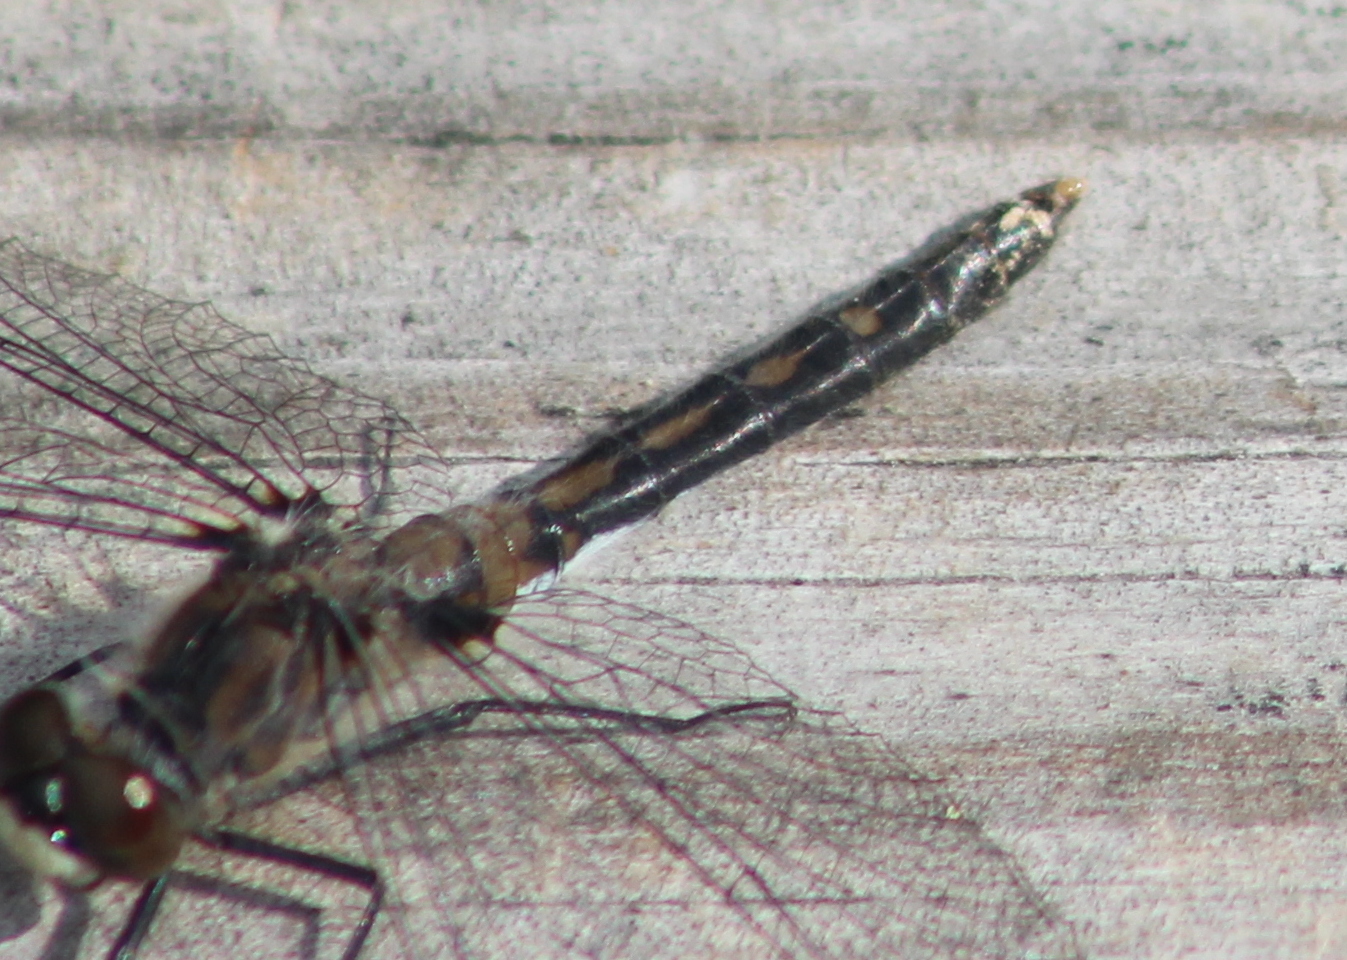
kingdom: Animalia
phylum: Arthropoda
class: Insecta
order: Odonata
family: Libellulidae
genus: Leucorrhinia
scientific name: Leucorrhinia hudsonica
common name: Hudsonian whiteface
